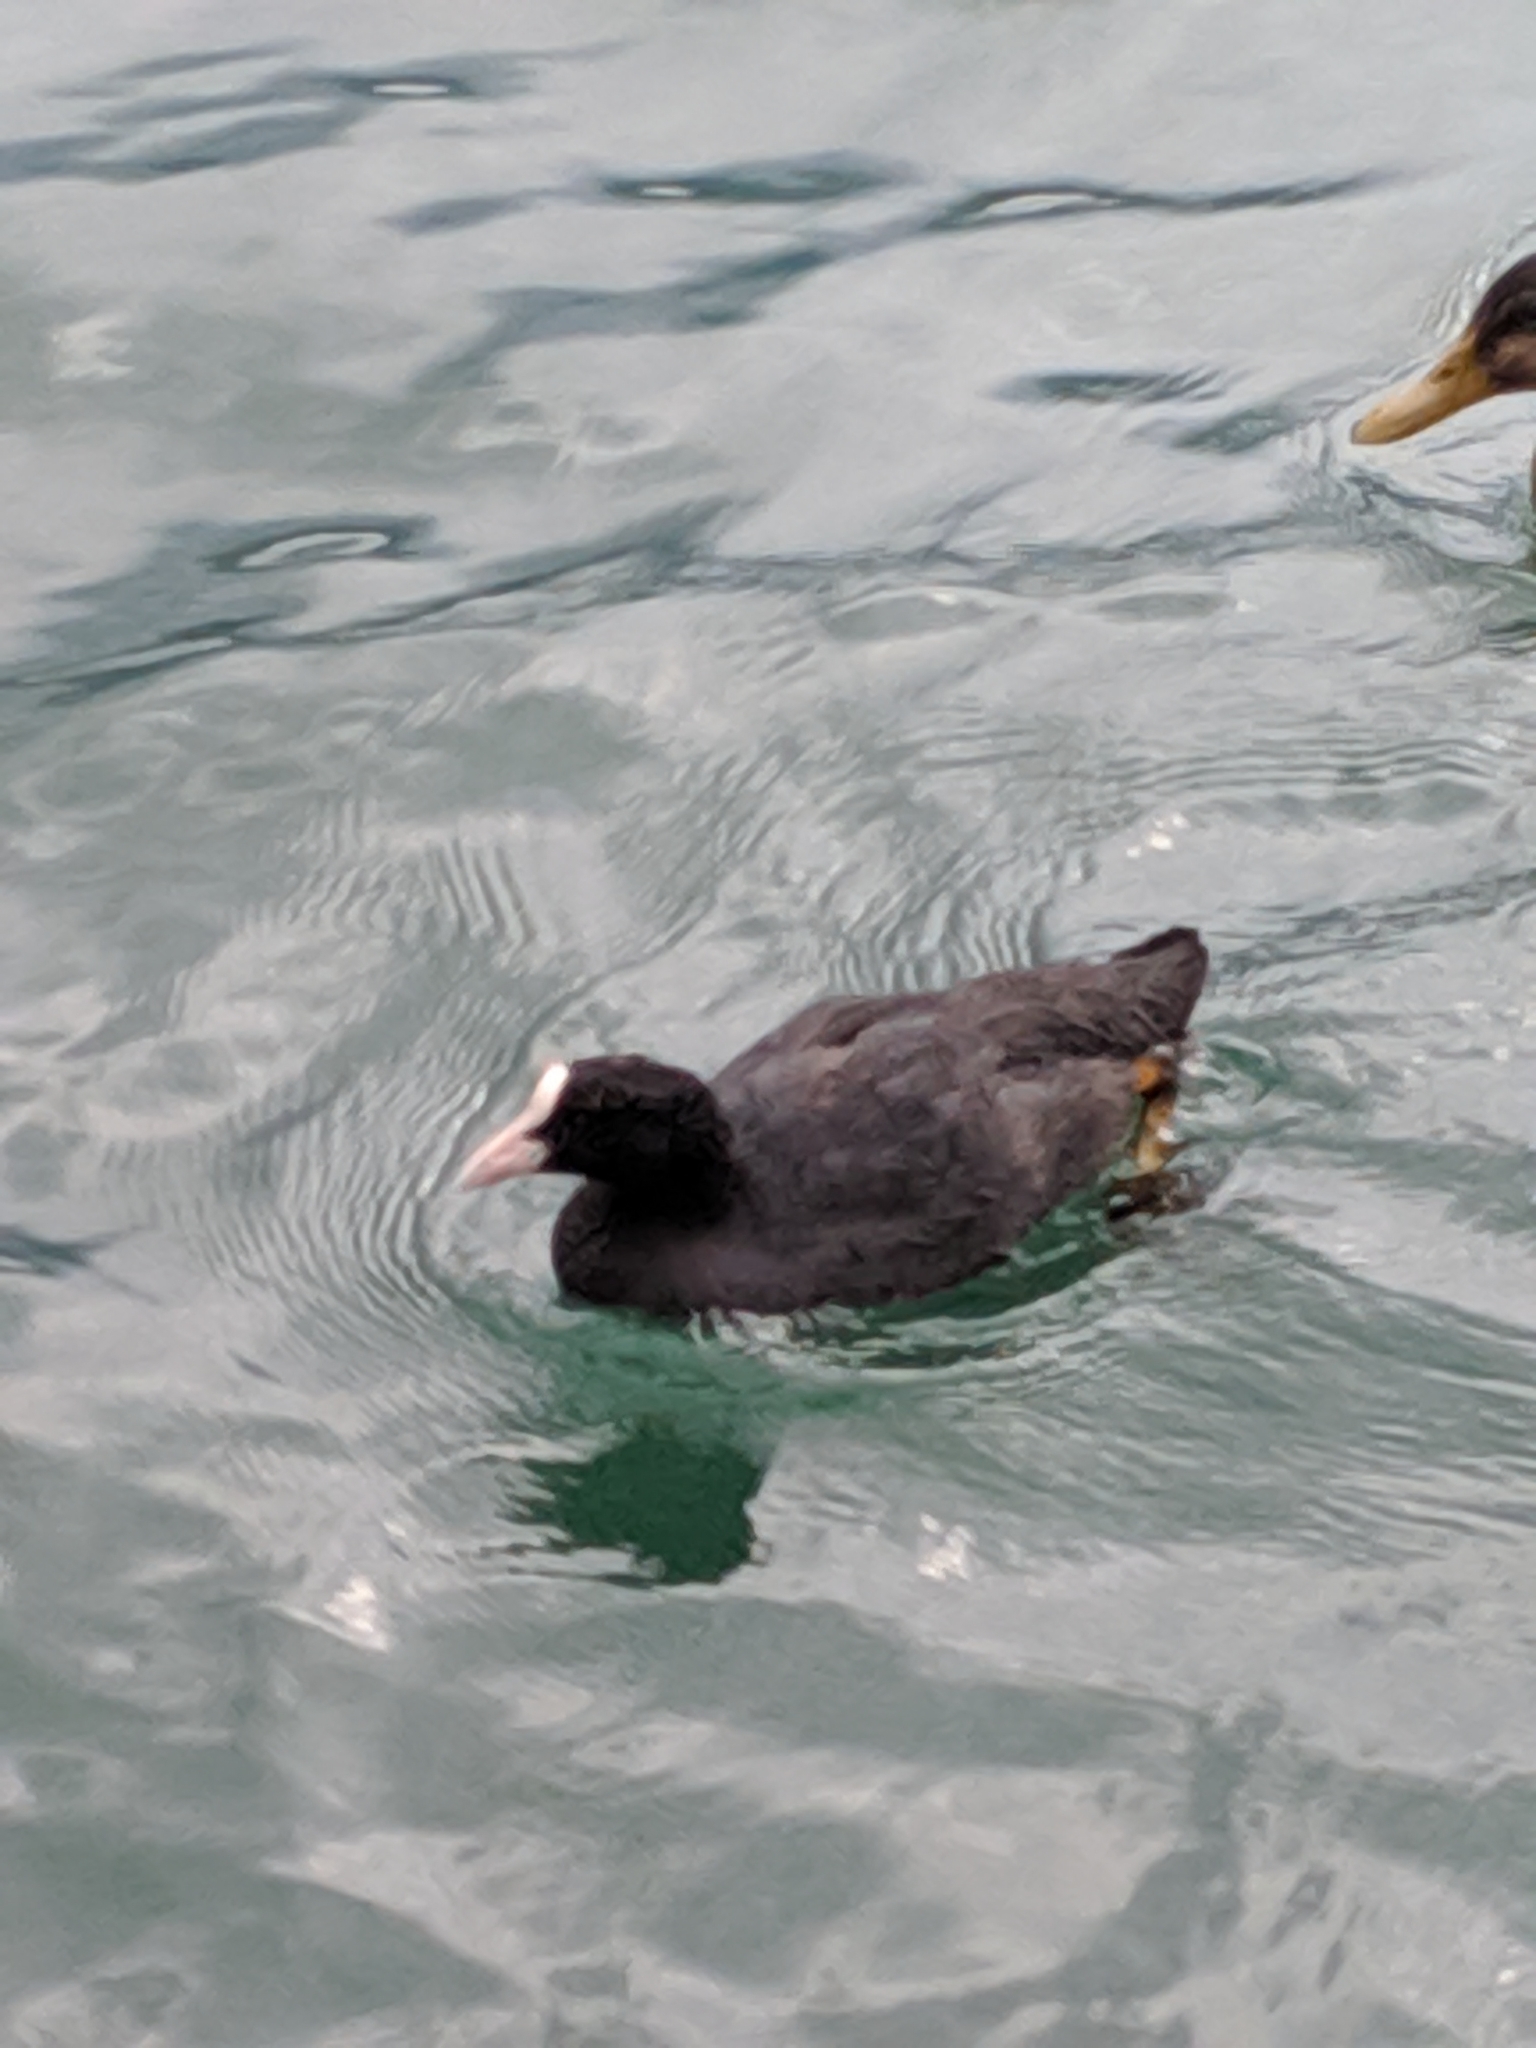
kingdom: Animalia
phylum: Chordata
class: Aves
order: Gruiformes
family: Rallidae
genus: Fulica
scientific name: Fulica atra
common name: Eurasian coot
